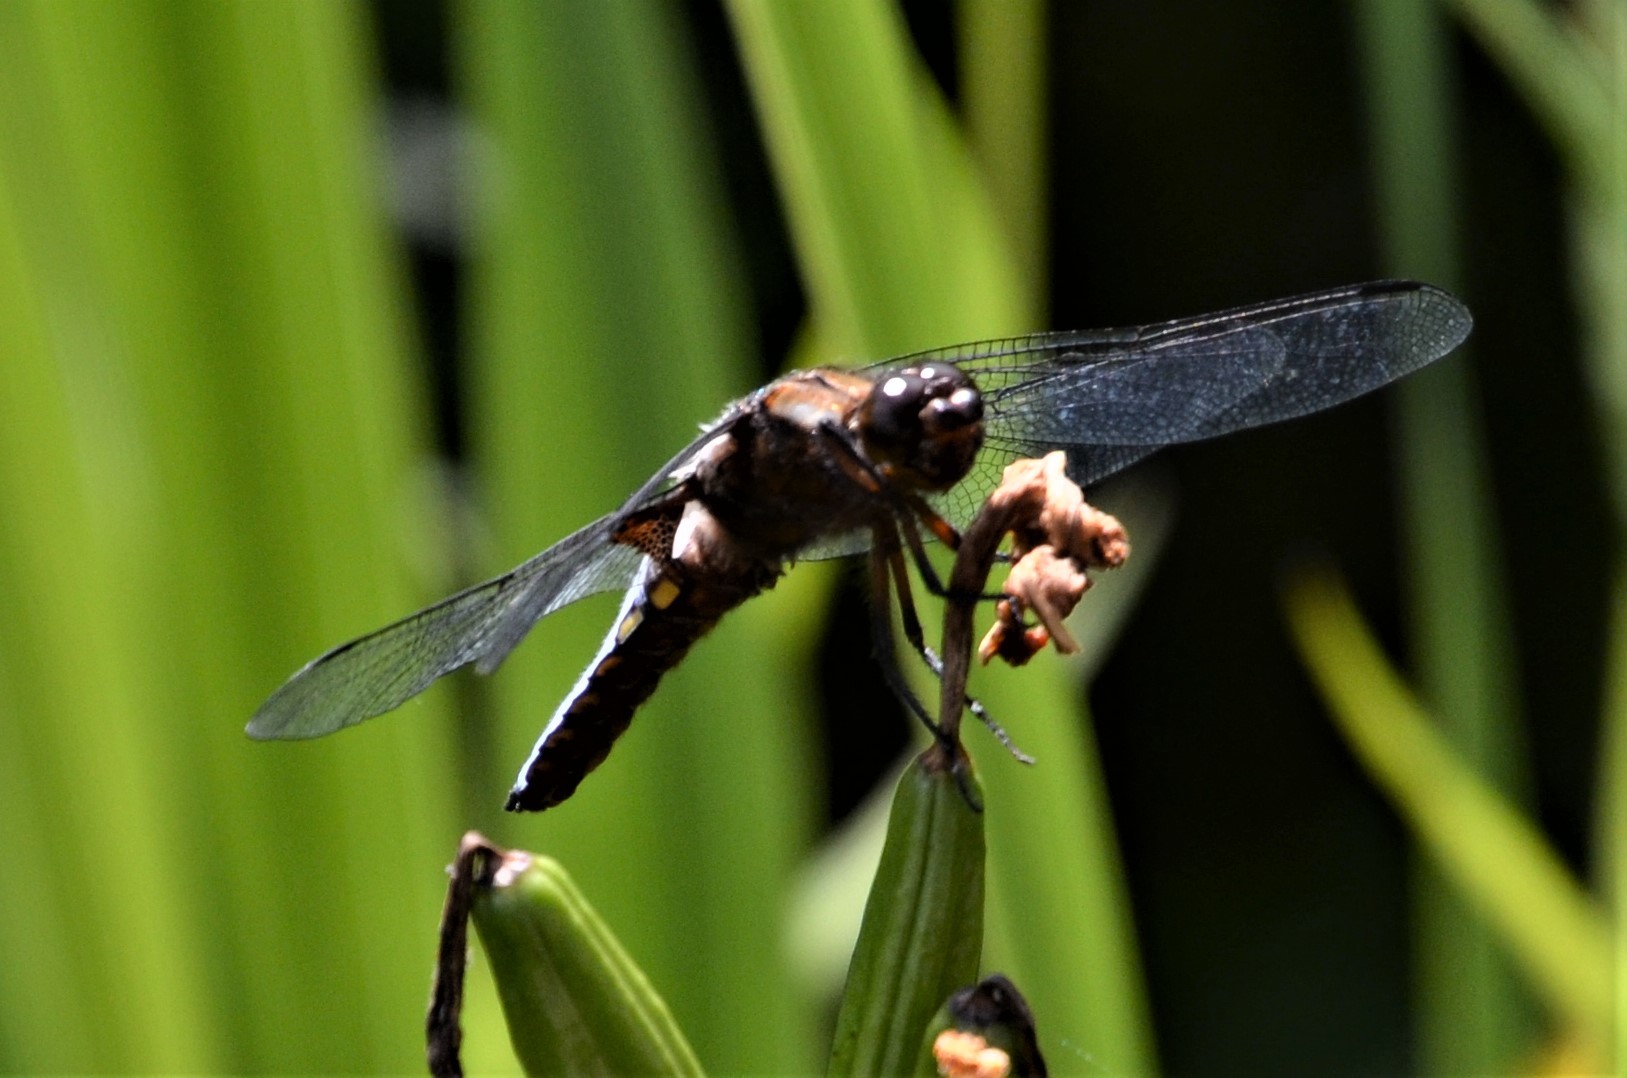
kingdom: Animalia
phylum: Arthropoda
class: Insecta
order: Odonata
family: Libellulidae
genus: Libellula
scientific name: Libellula depressa
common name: Broad-bodied chaser
